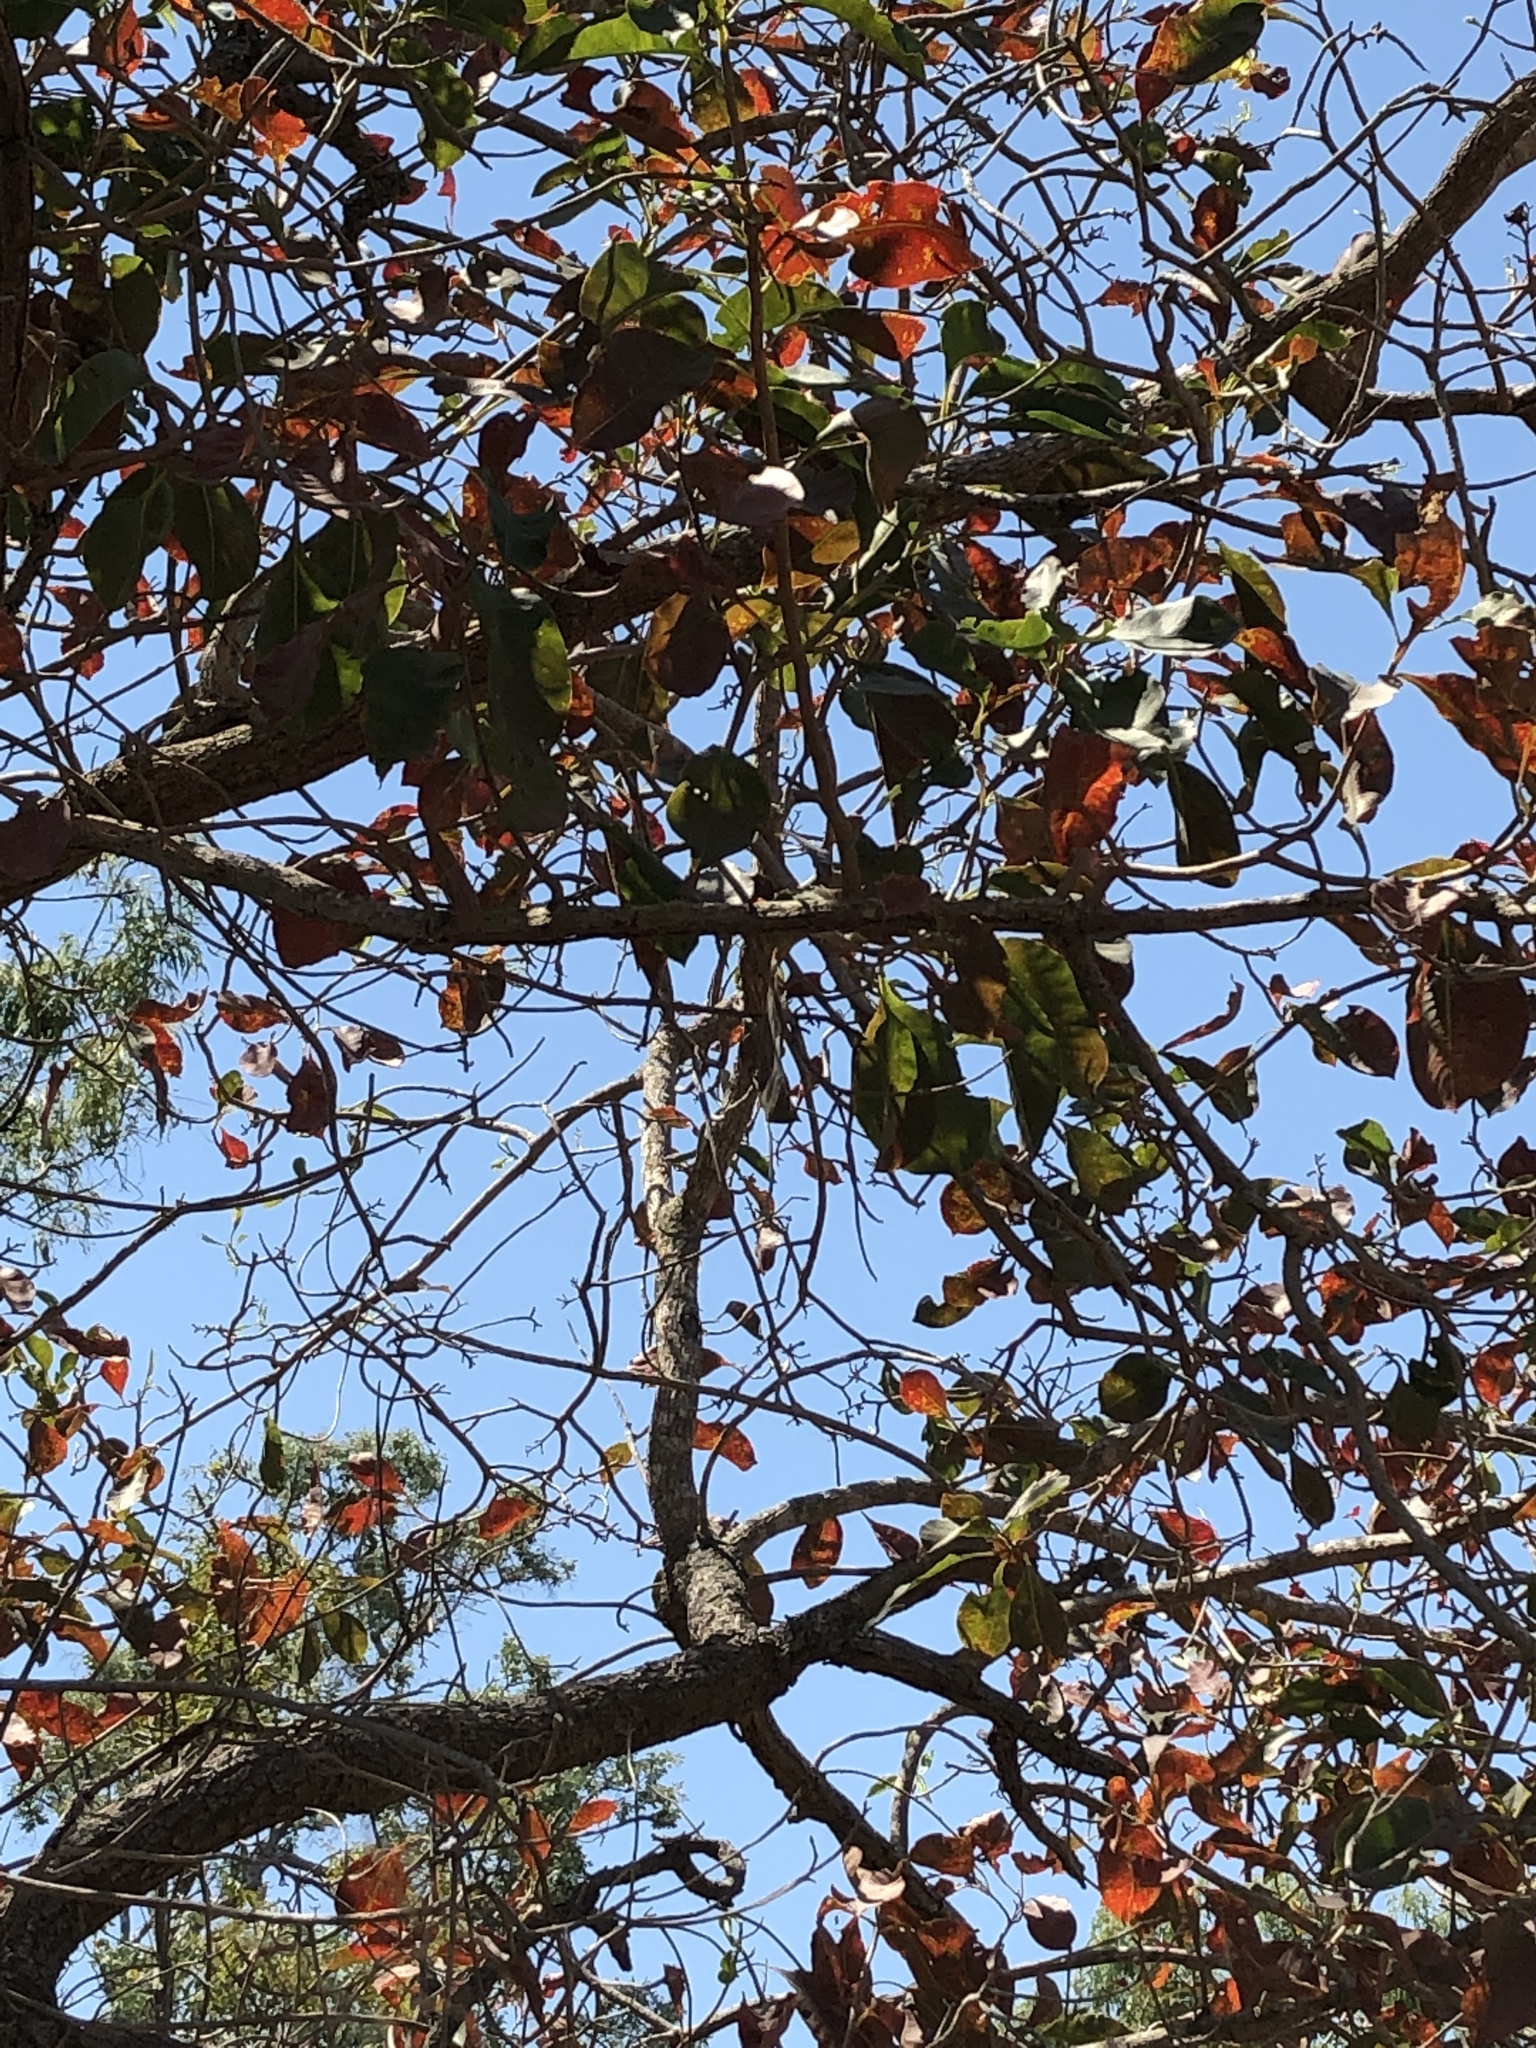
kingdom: Plantae
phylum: Tracheophyta
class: Magnoliopsida
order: Ericales
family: Lecythidaceae
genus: Planchonia
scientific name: Planchonia careya
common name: Cockatoo-apple
